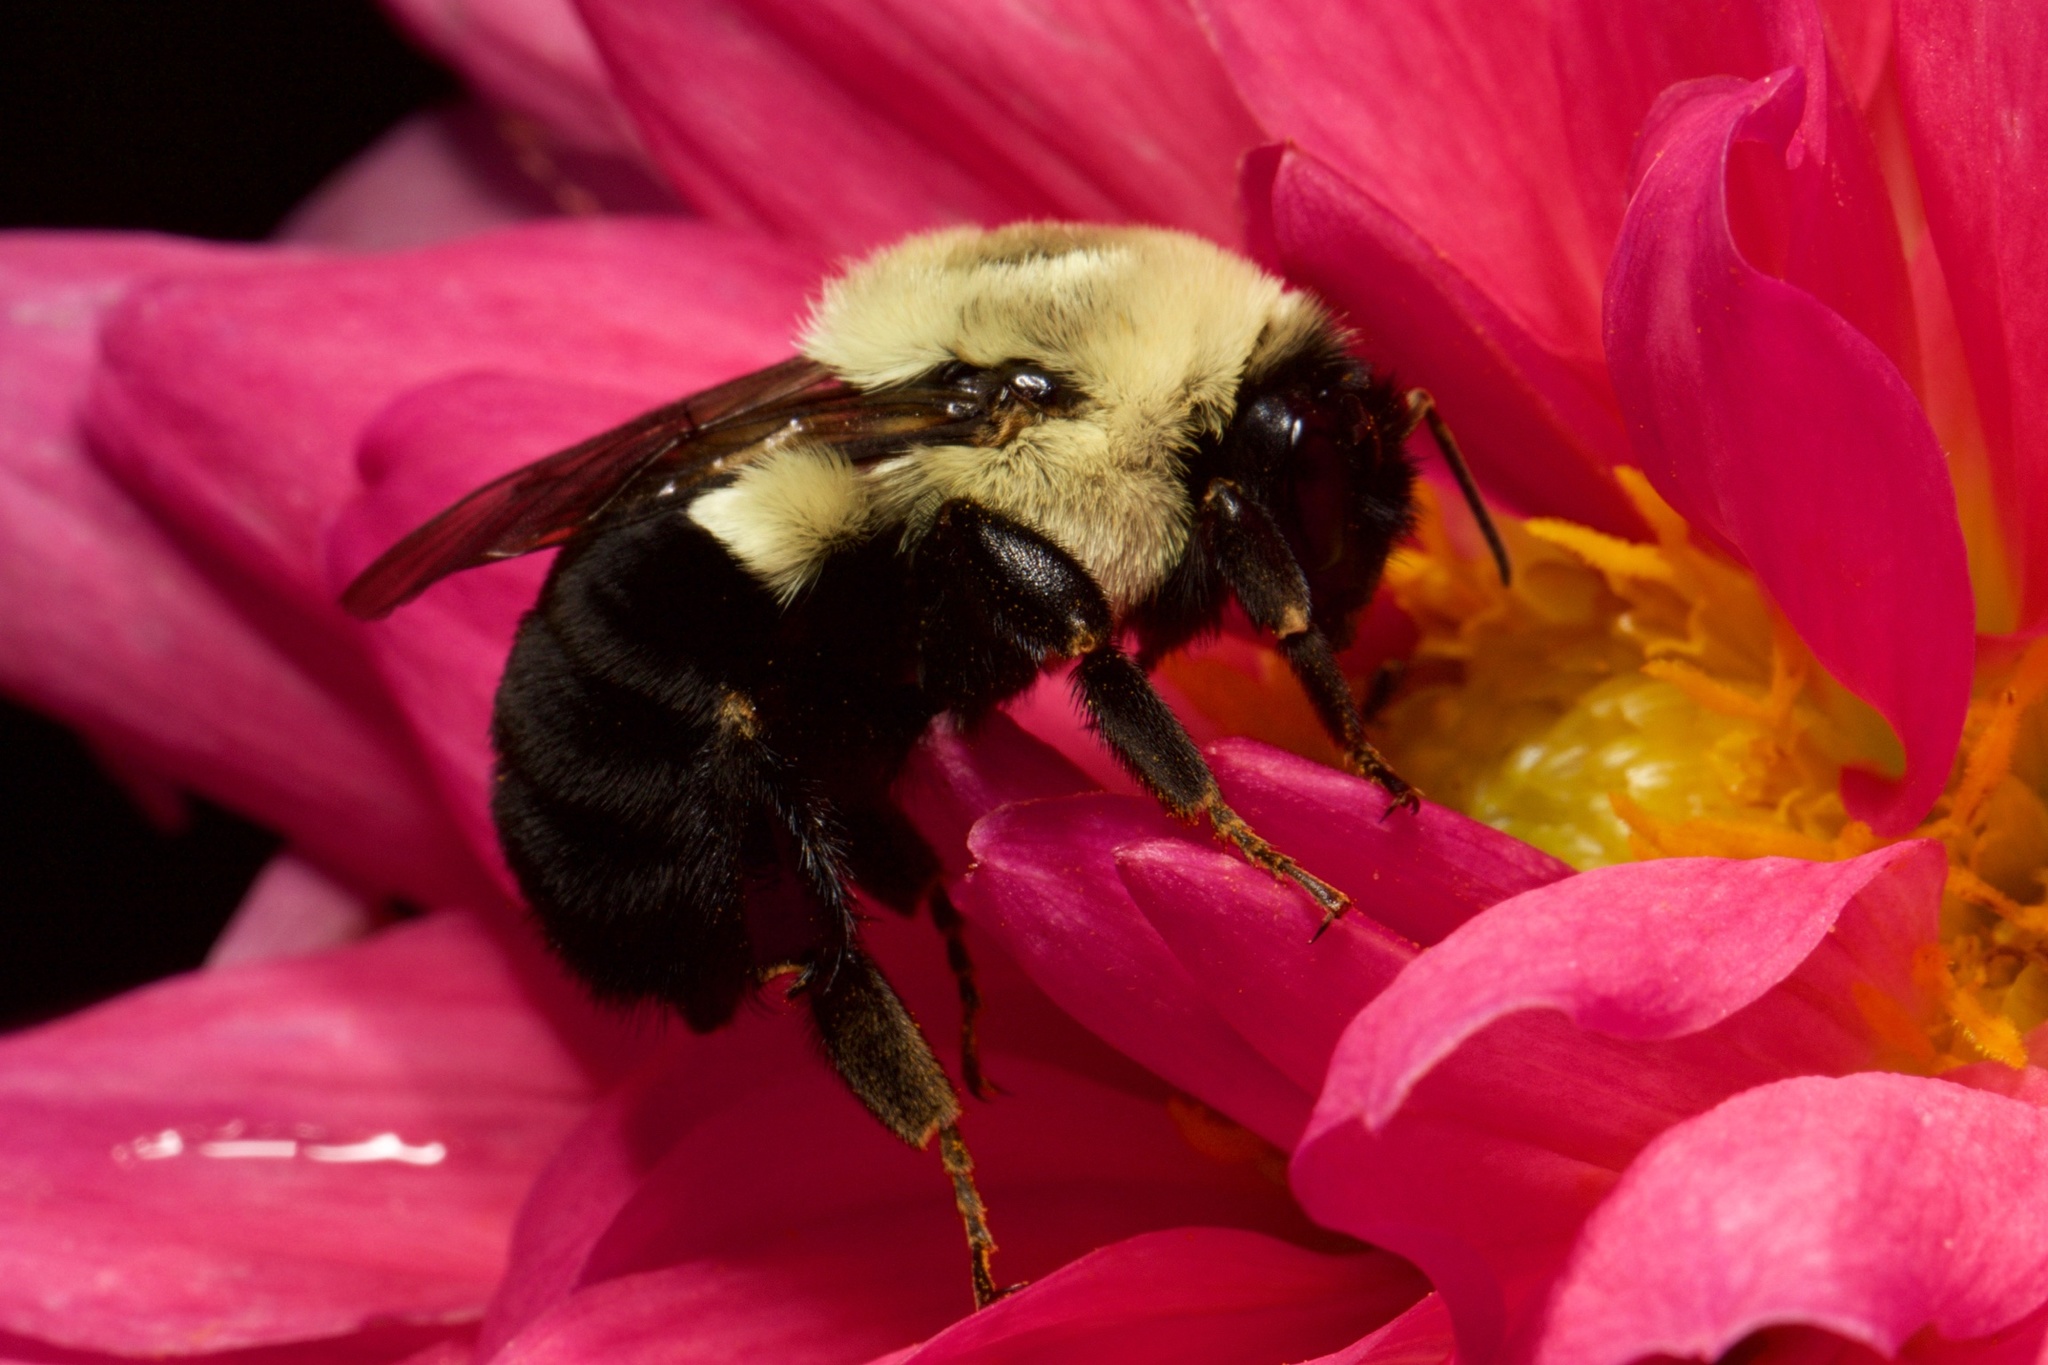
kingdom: Animalia
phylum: Arthropoda
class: Insecta
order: Hymenoptera
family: Apidae
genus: Bombus
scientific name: Bombus impatiens
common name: Common eastern bumble bee
